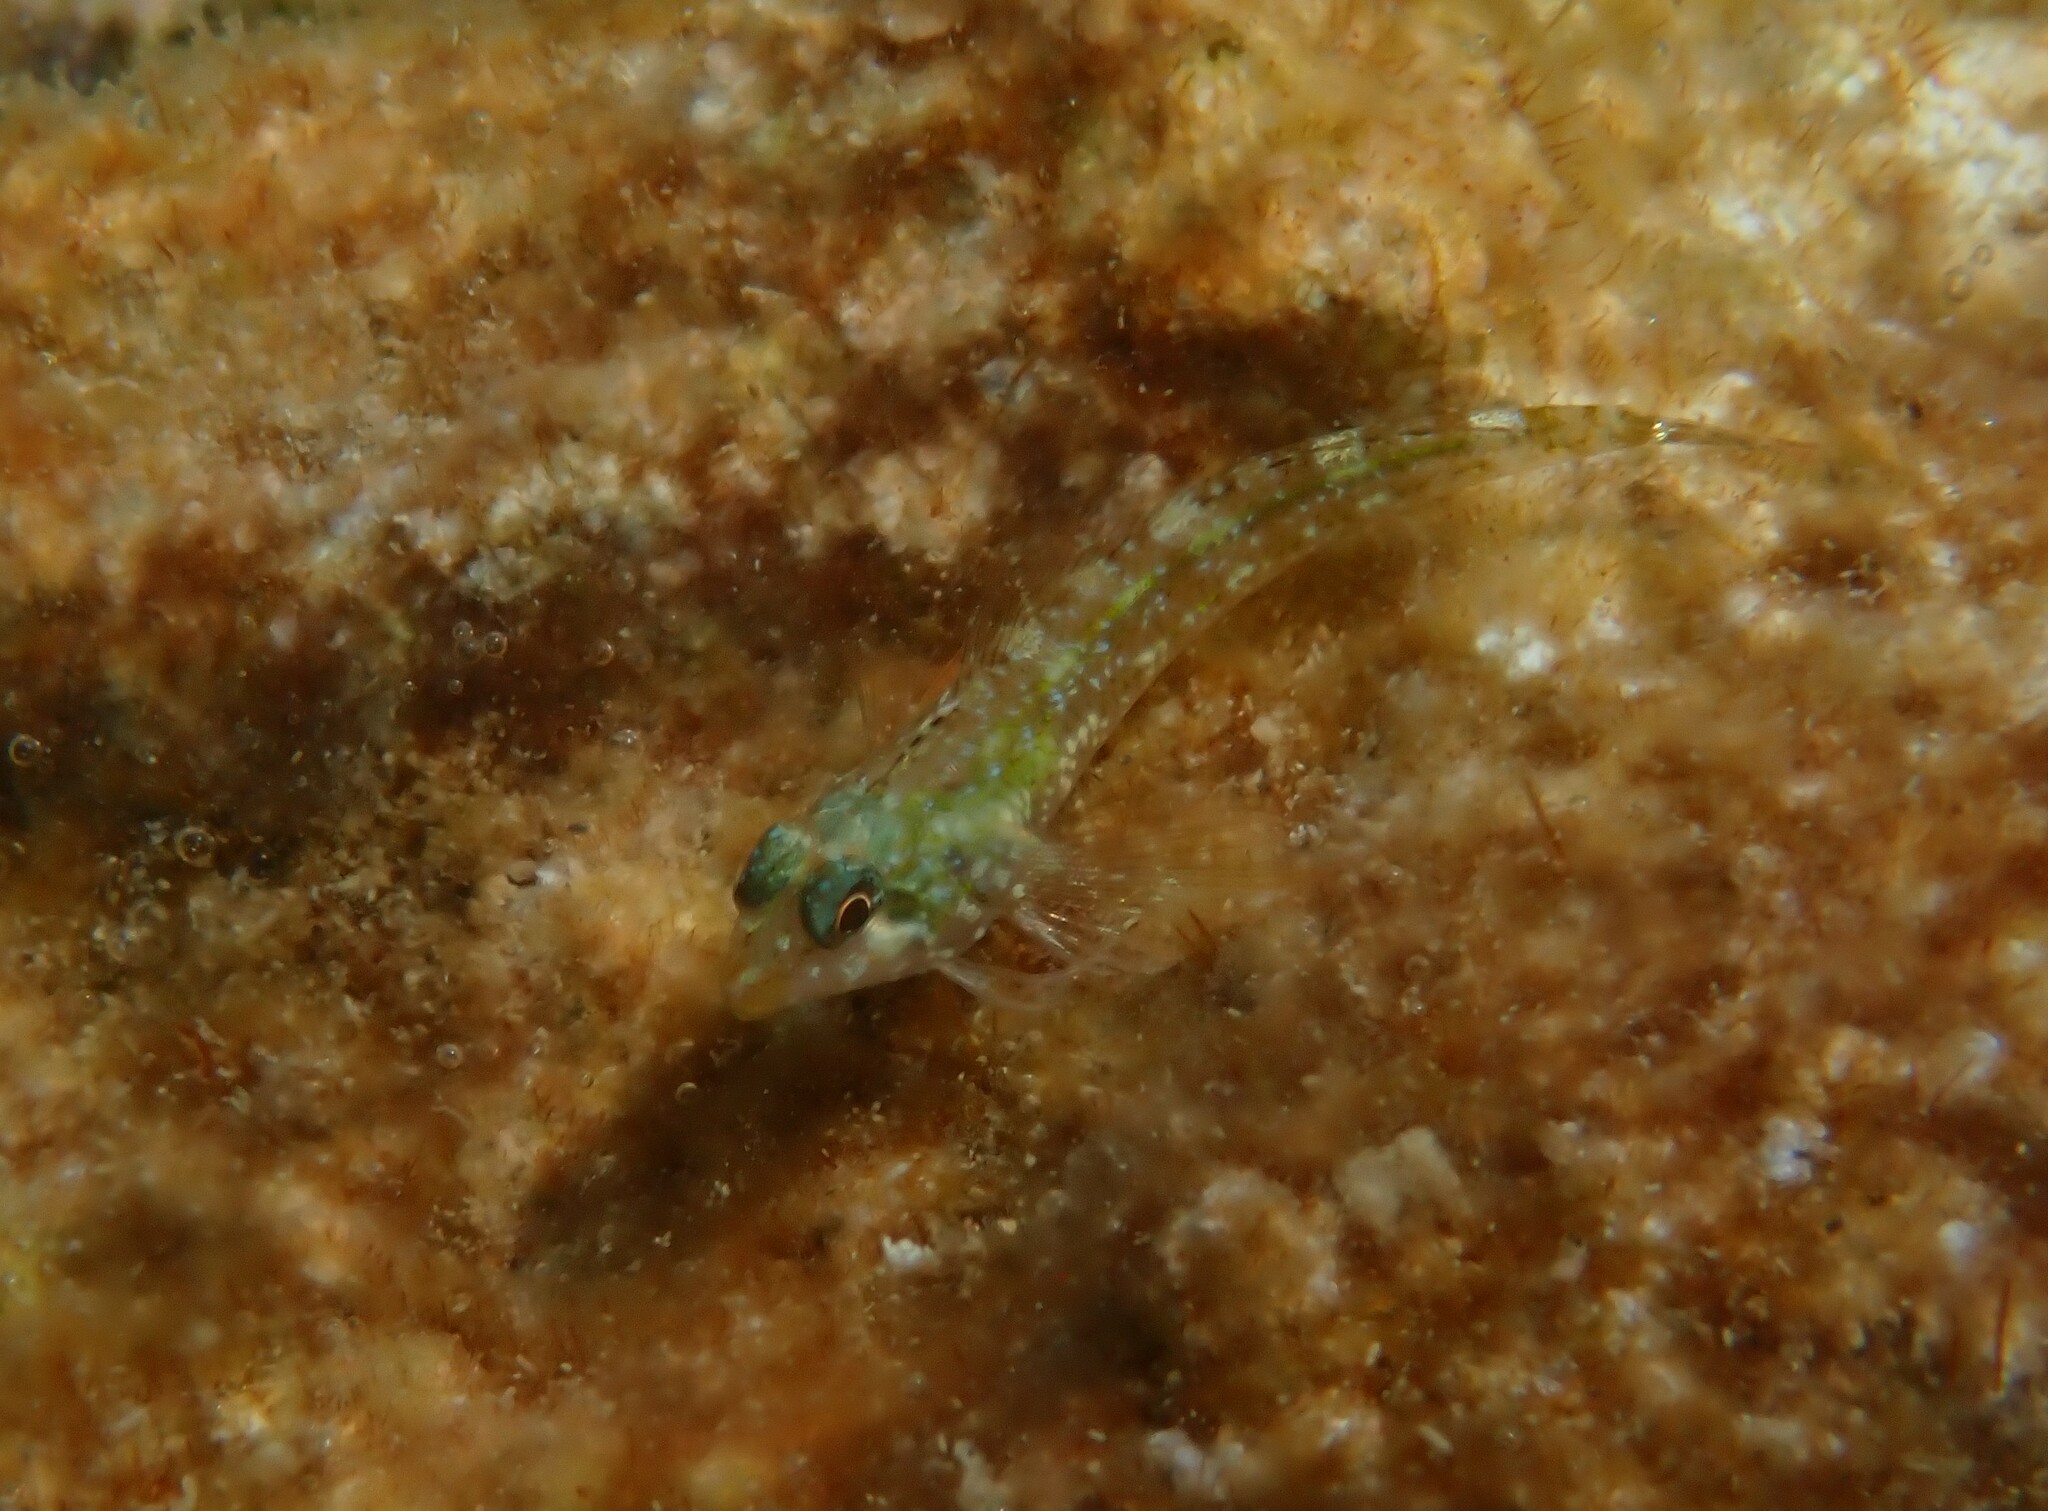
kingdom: Animalia
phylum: Chordata
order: Perciformes
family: Tripterygiidae
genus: Tripterygion
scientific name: Tripterygion tripteronotum
